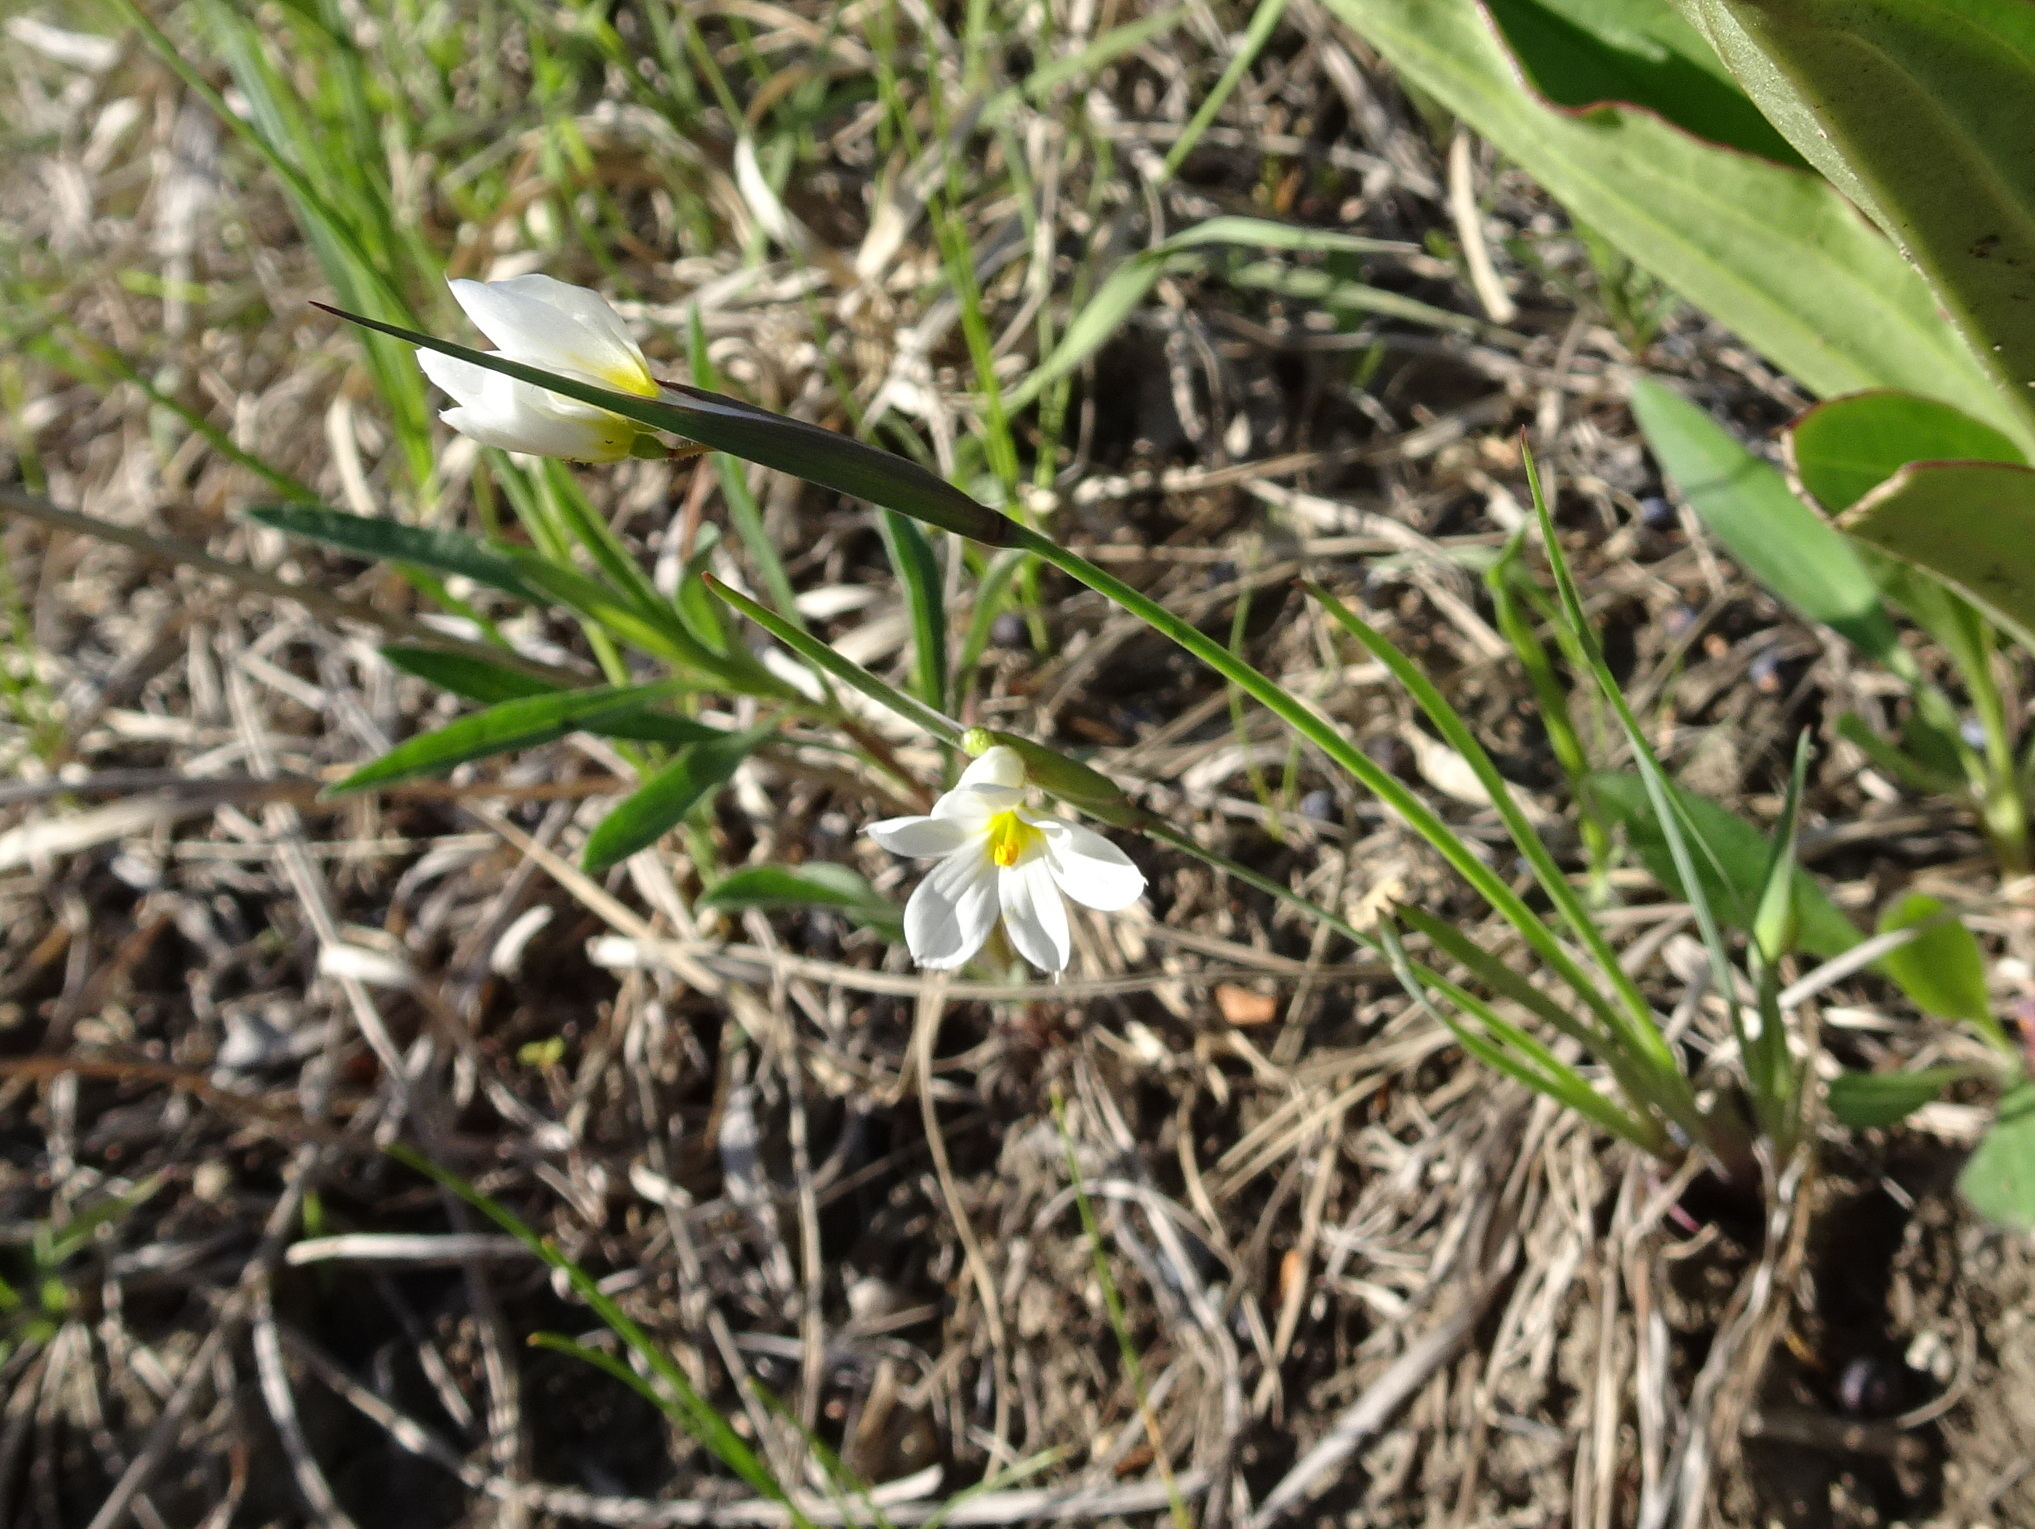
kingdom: Plantae
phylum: Tracheophyta
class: Liliopsida
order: Asparagales
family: Iridaceae
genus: Sisyrinchium
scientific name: Sisyrinchium campestre
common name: Prairie blue-eyed-grass
